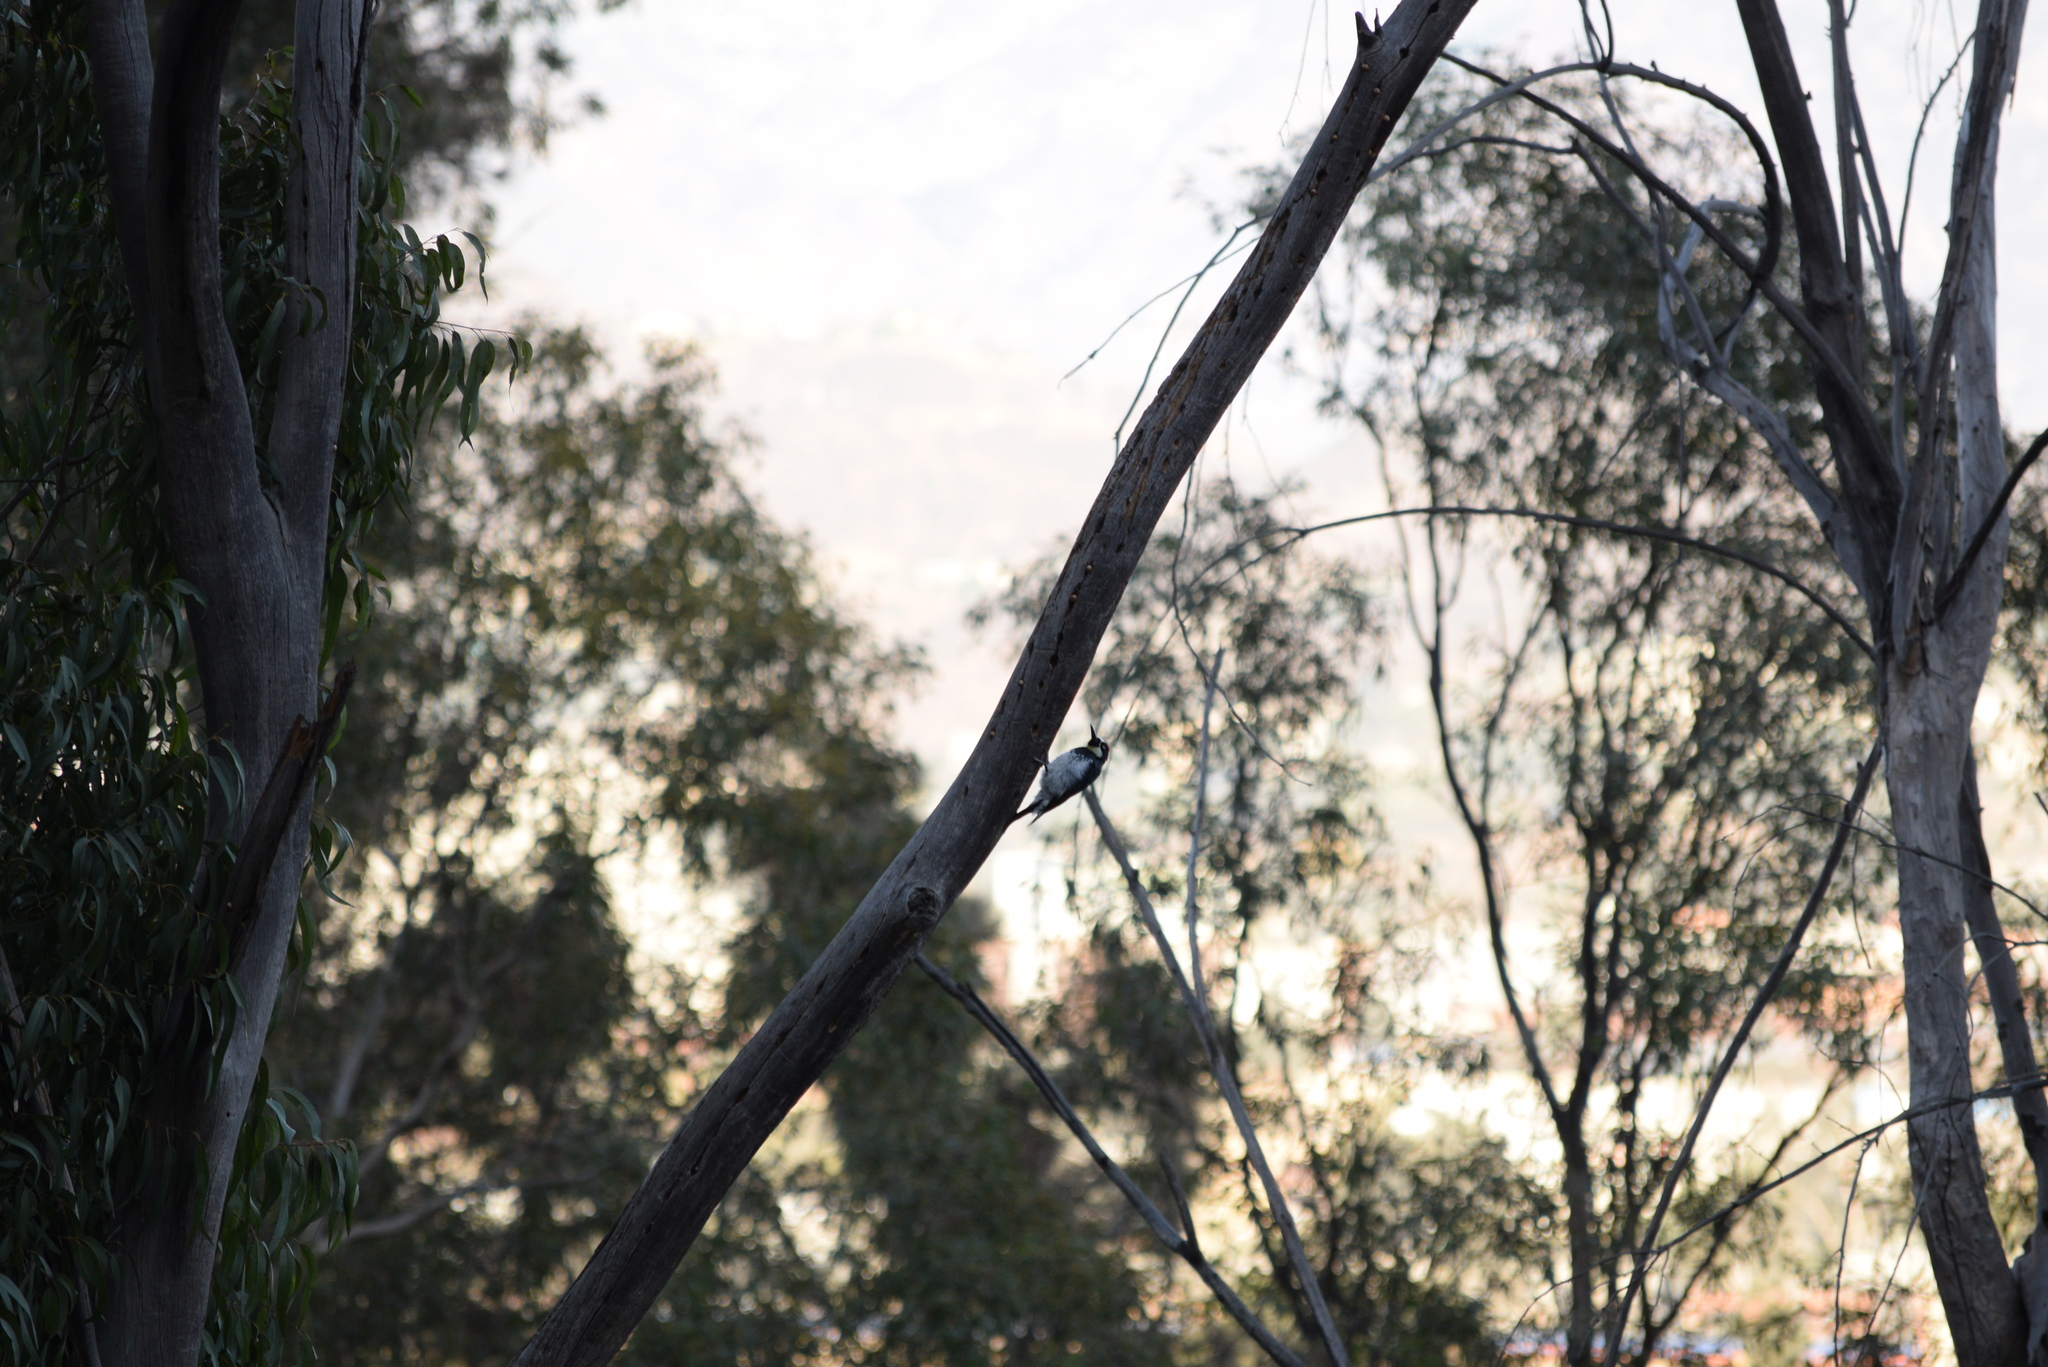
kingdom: Animalia
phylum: Chordata
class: Aves
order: Piciformes
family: Picidae
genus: Melanerpes
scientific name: Melanerpes formicivorus
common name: Acorn woodpecker
